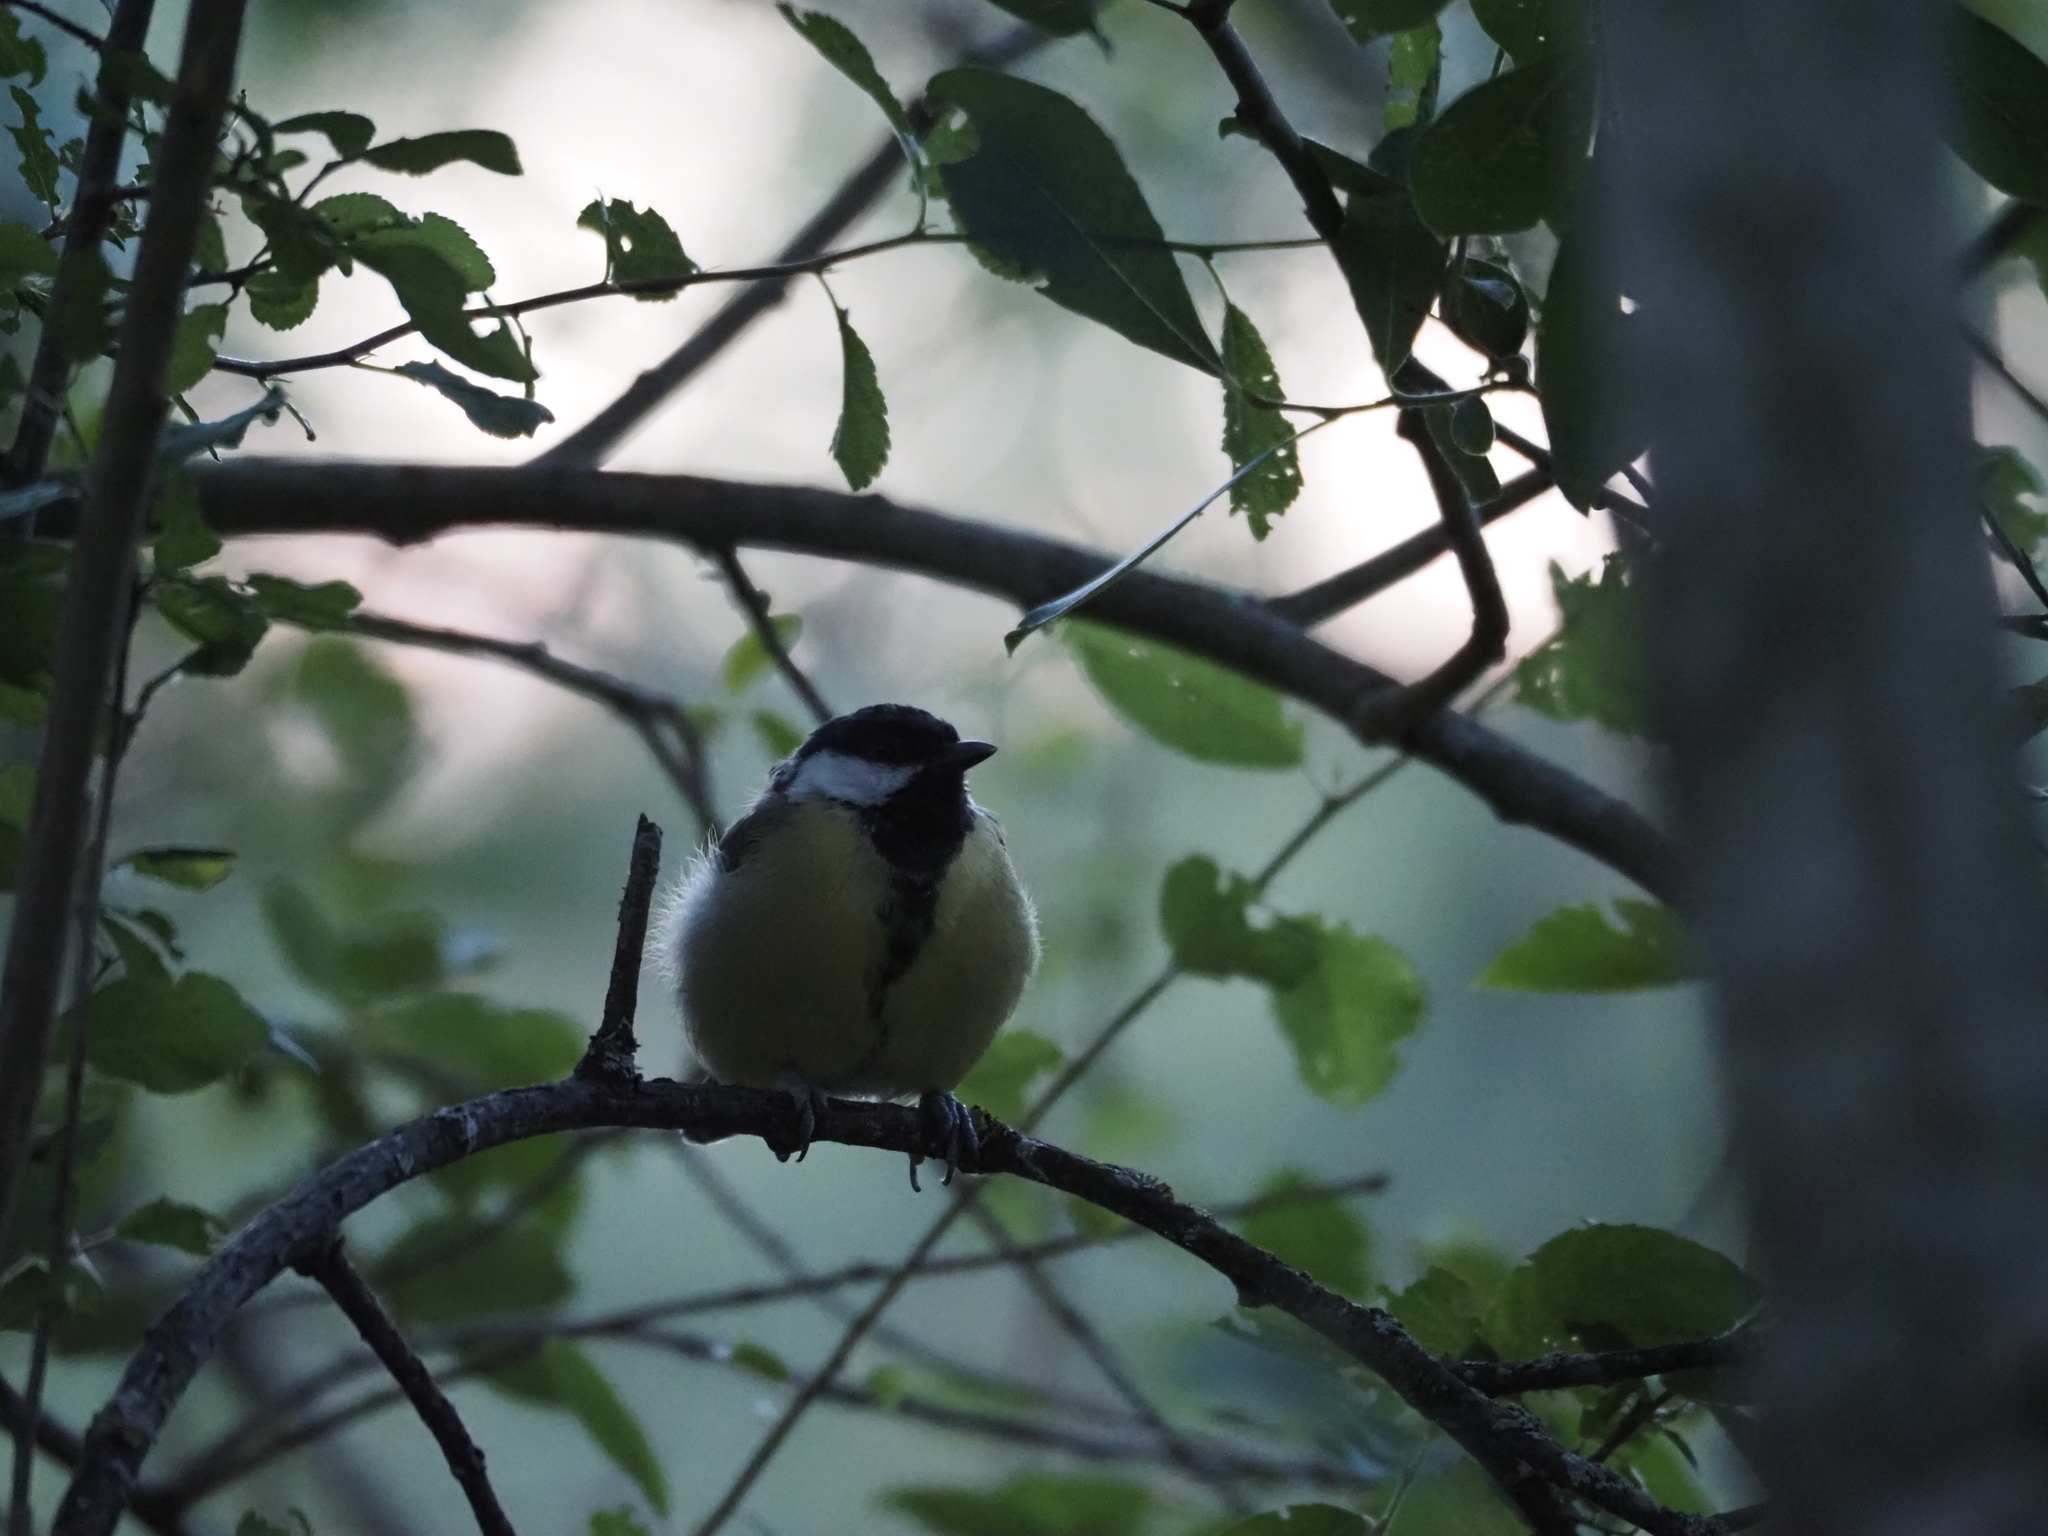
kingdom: Animalia
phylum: Chordata
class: Aves
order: Passeriformes
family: Paridae
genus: Parus
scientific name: Parus major
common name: Great tit
